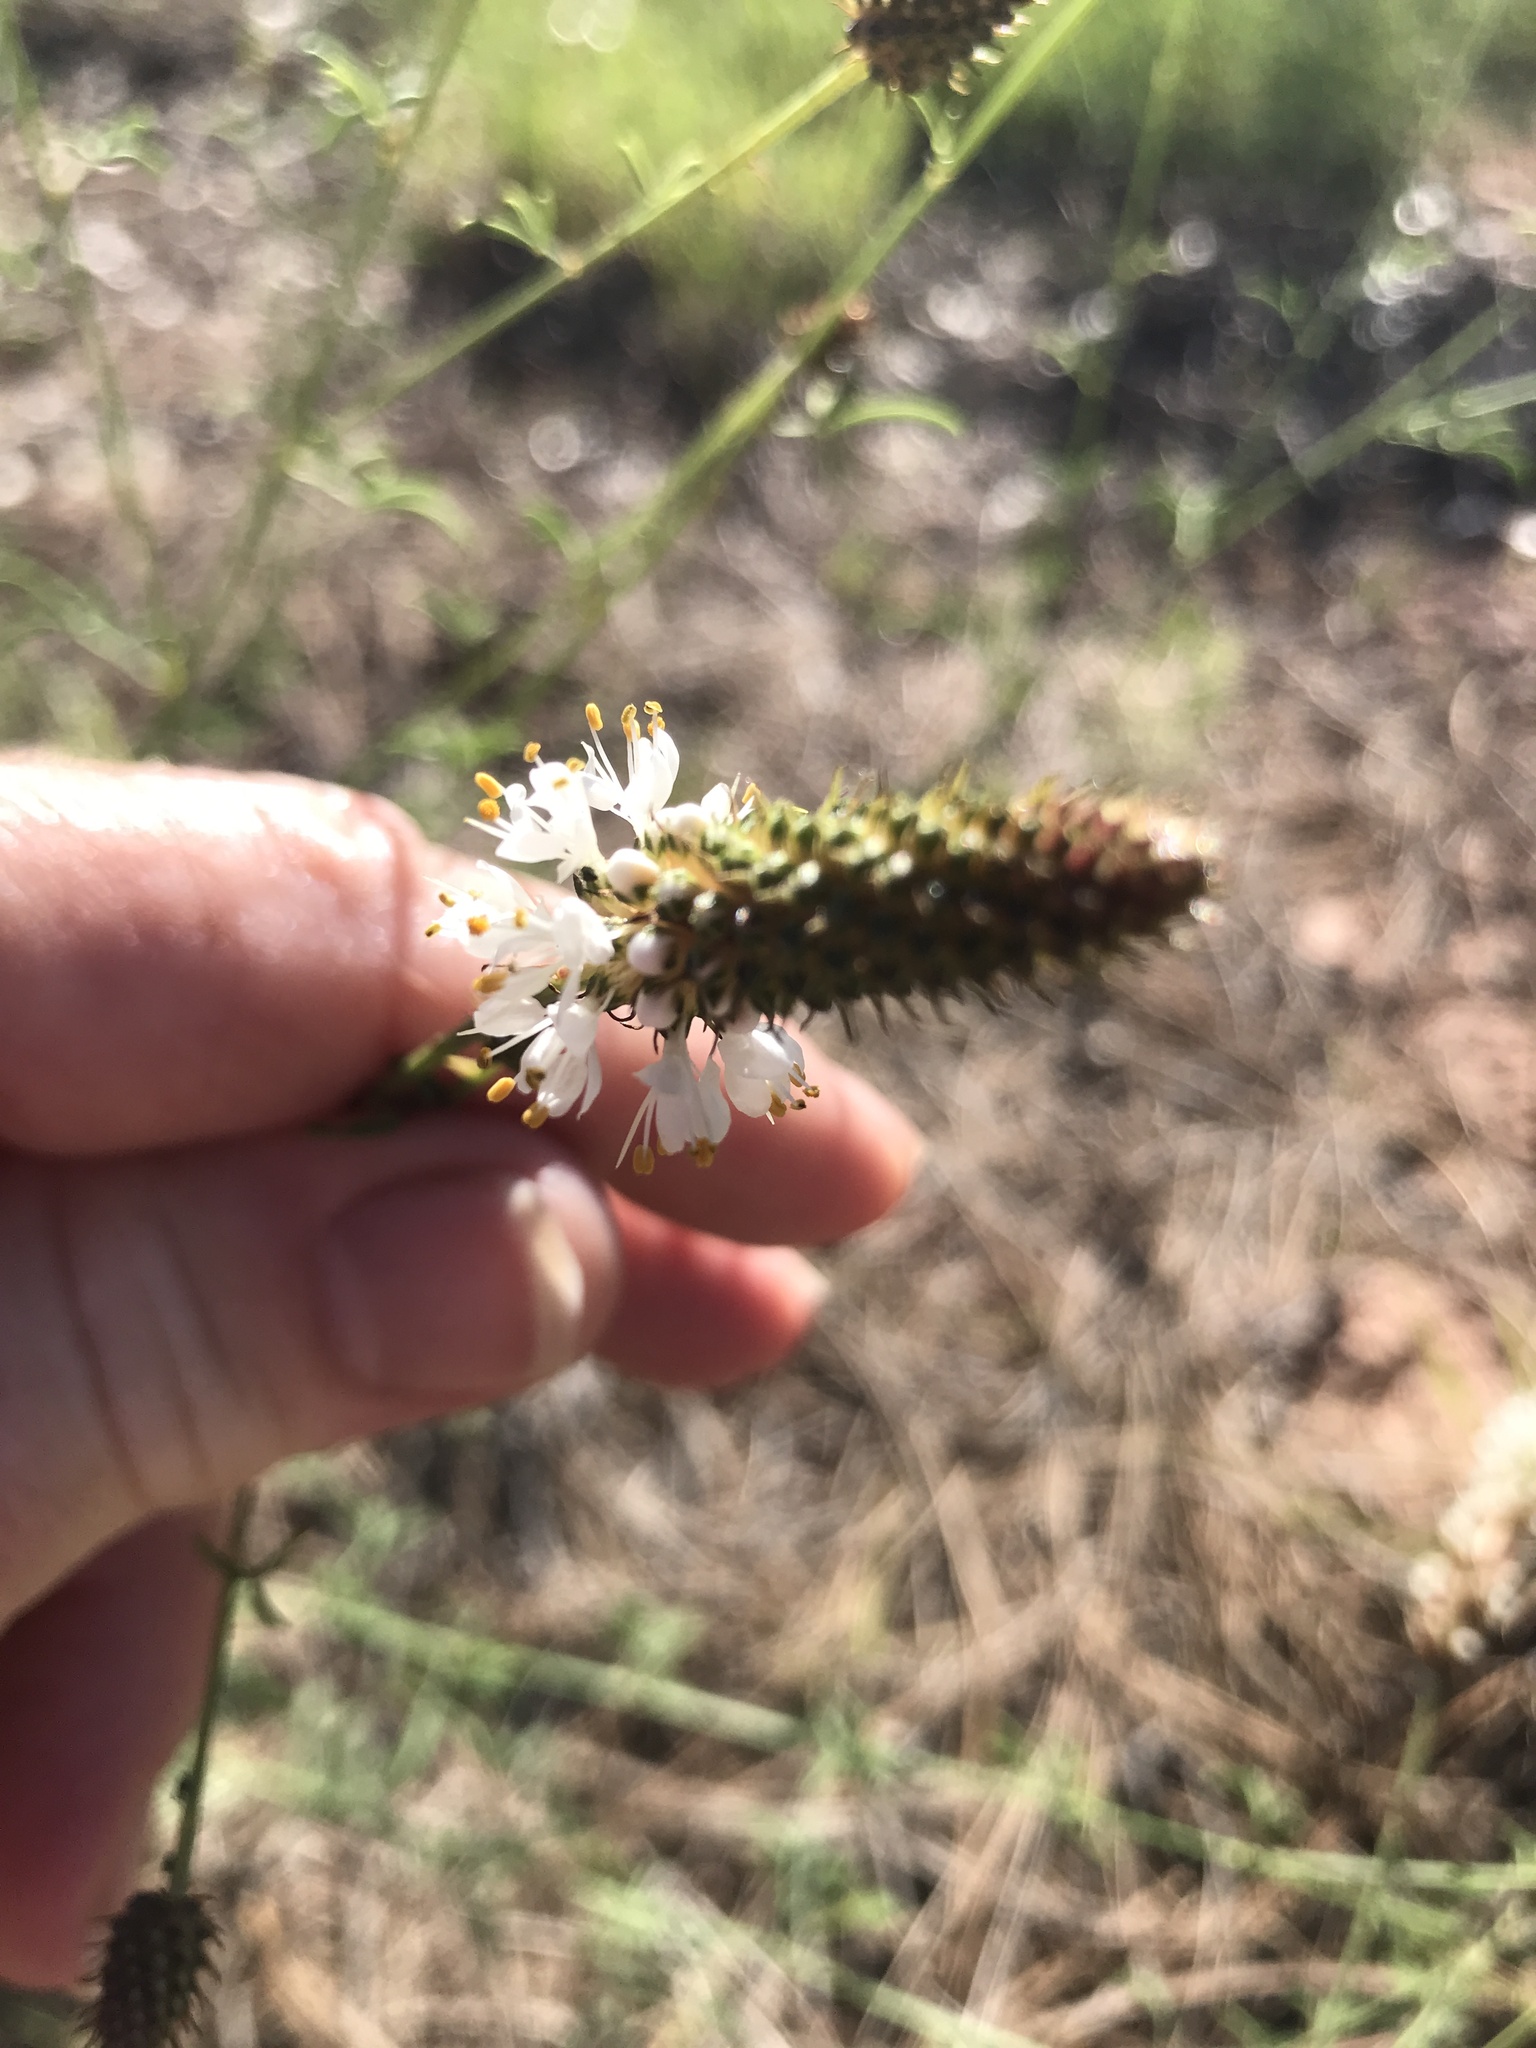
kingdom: Plantae
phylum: Tracheophyta
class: Magnoliopsida
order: Fabales
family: Fabaceae
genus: Dalea
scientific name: Dalea candida
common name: White prairie-clover
